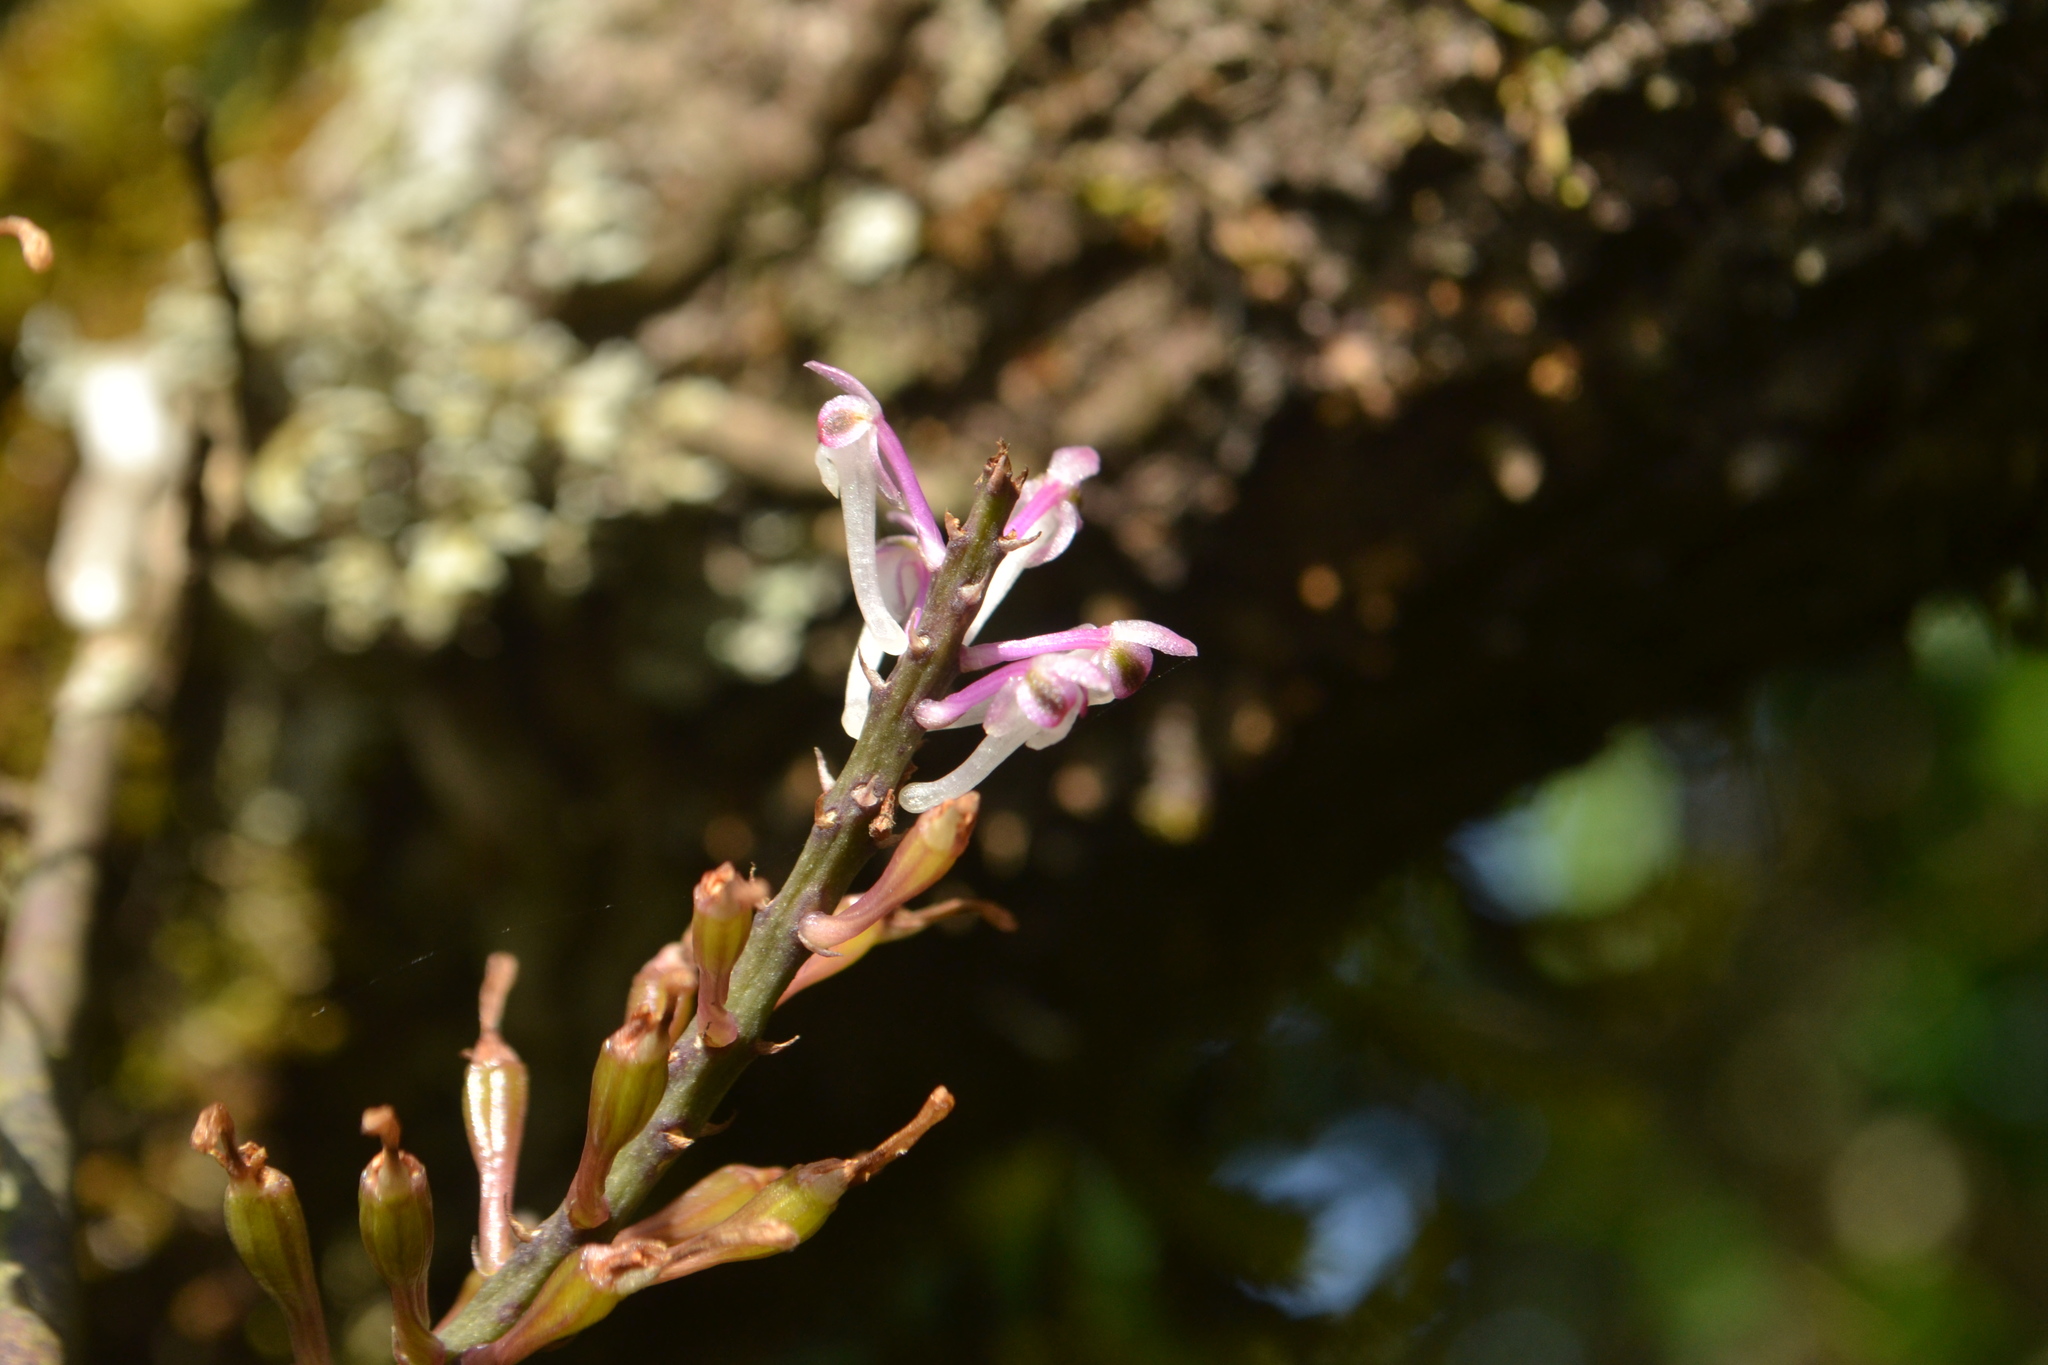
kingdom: Plantae
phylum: Tracheophyta
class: Liliopsida
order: Asparagales
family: Orchidaceae
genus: Cleisostomopsis
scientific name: Cleisostomopsis roseus
